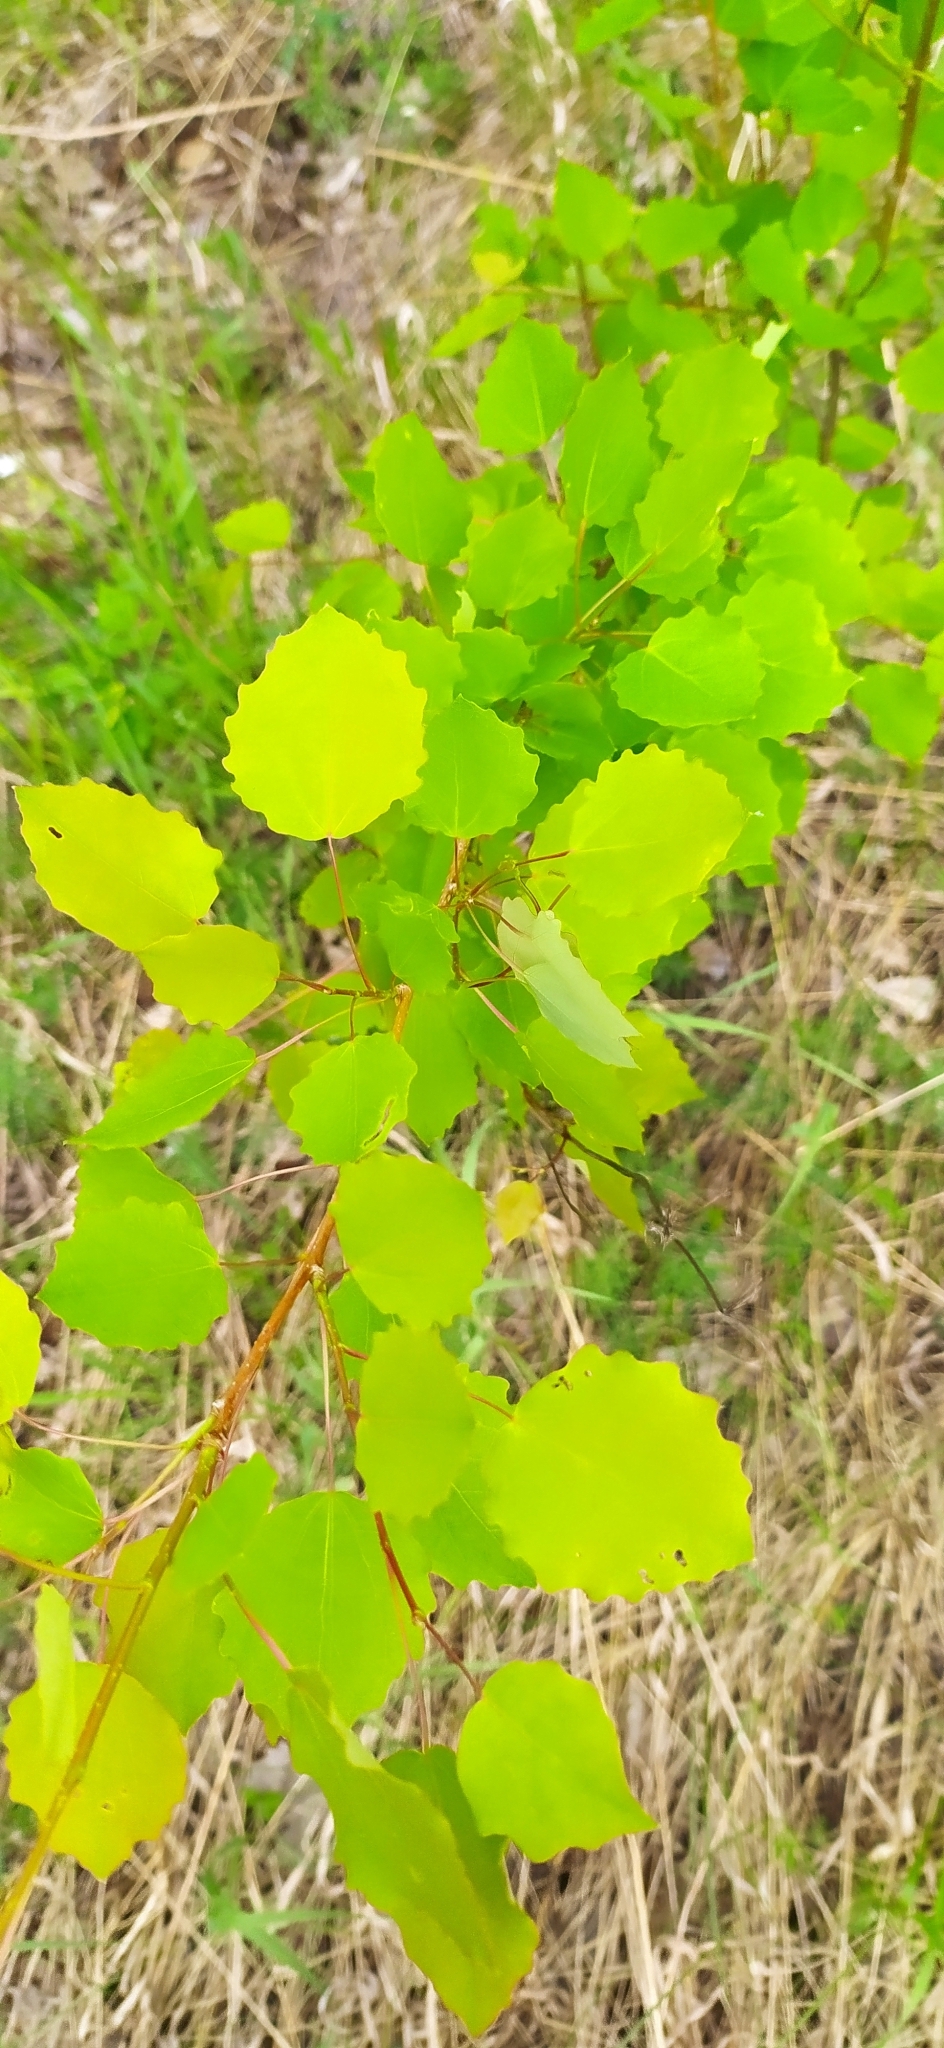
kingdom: Plantae
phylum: Tracheophyta
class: Magnoliopsida
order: Malpighiales
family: Salicaceae
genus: Populus
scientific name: Populus tremula
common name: European aspen
